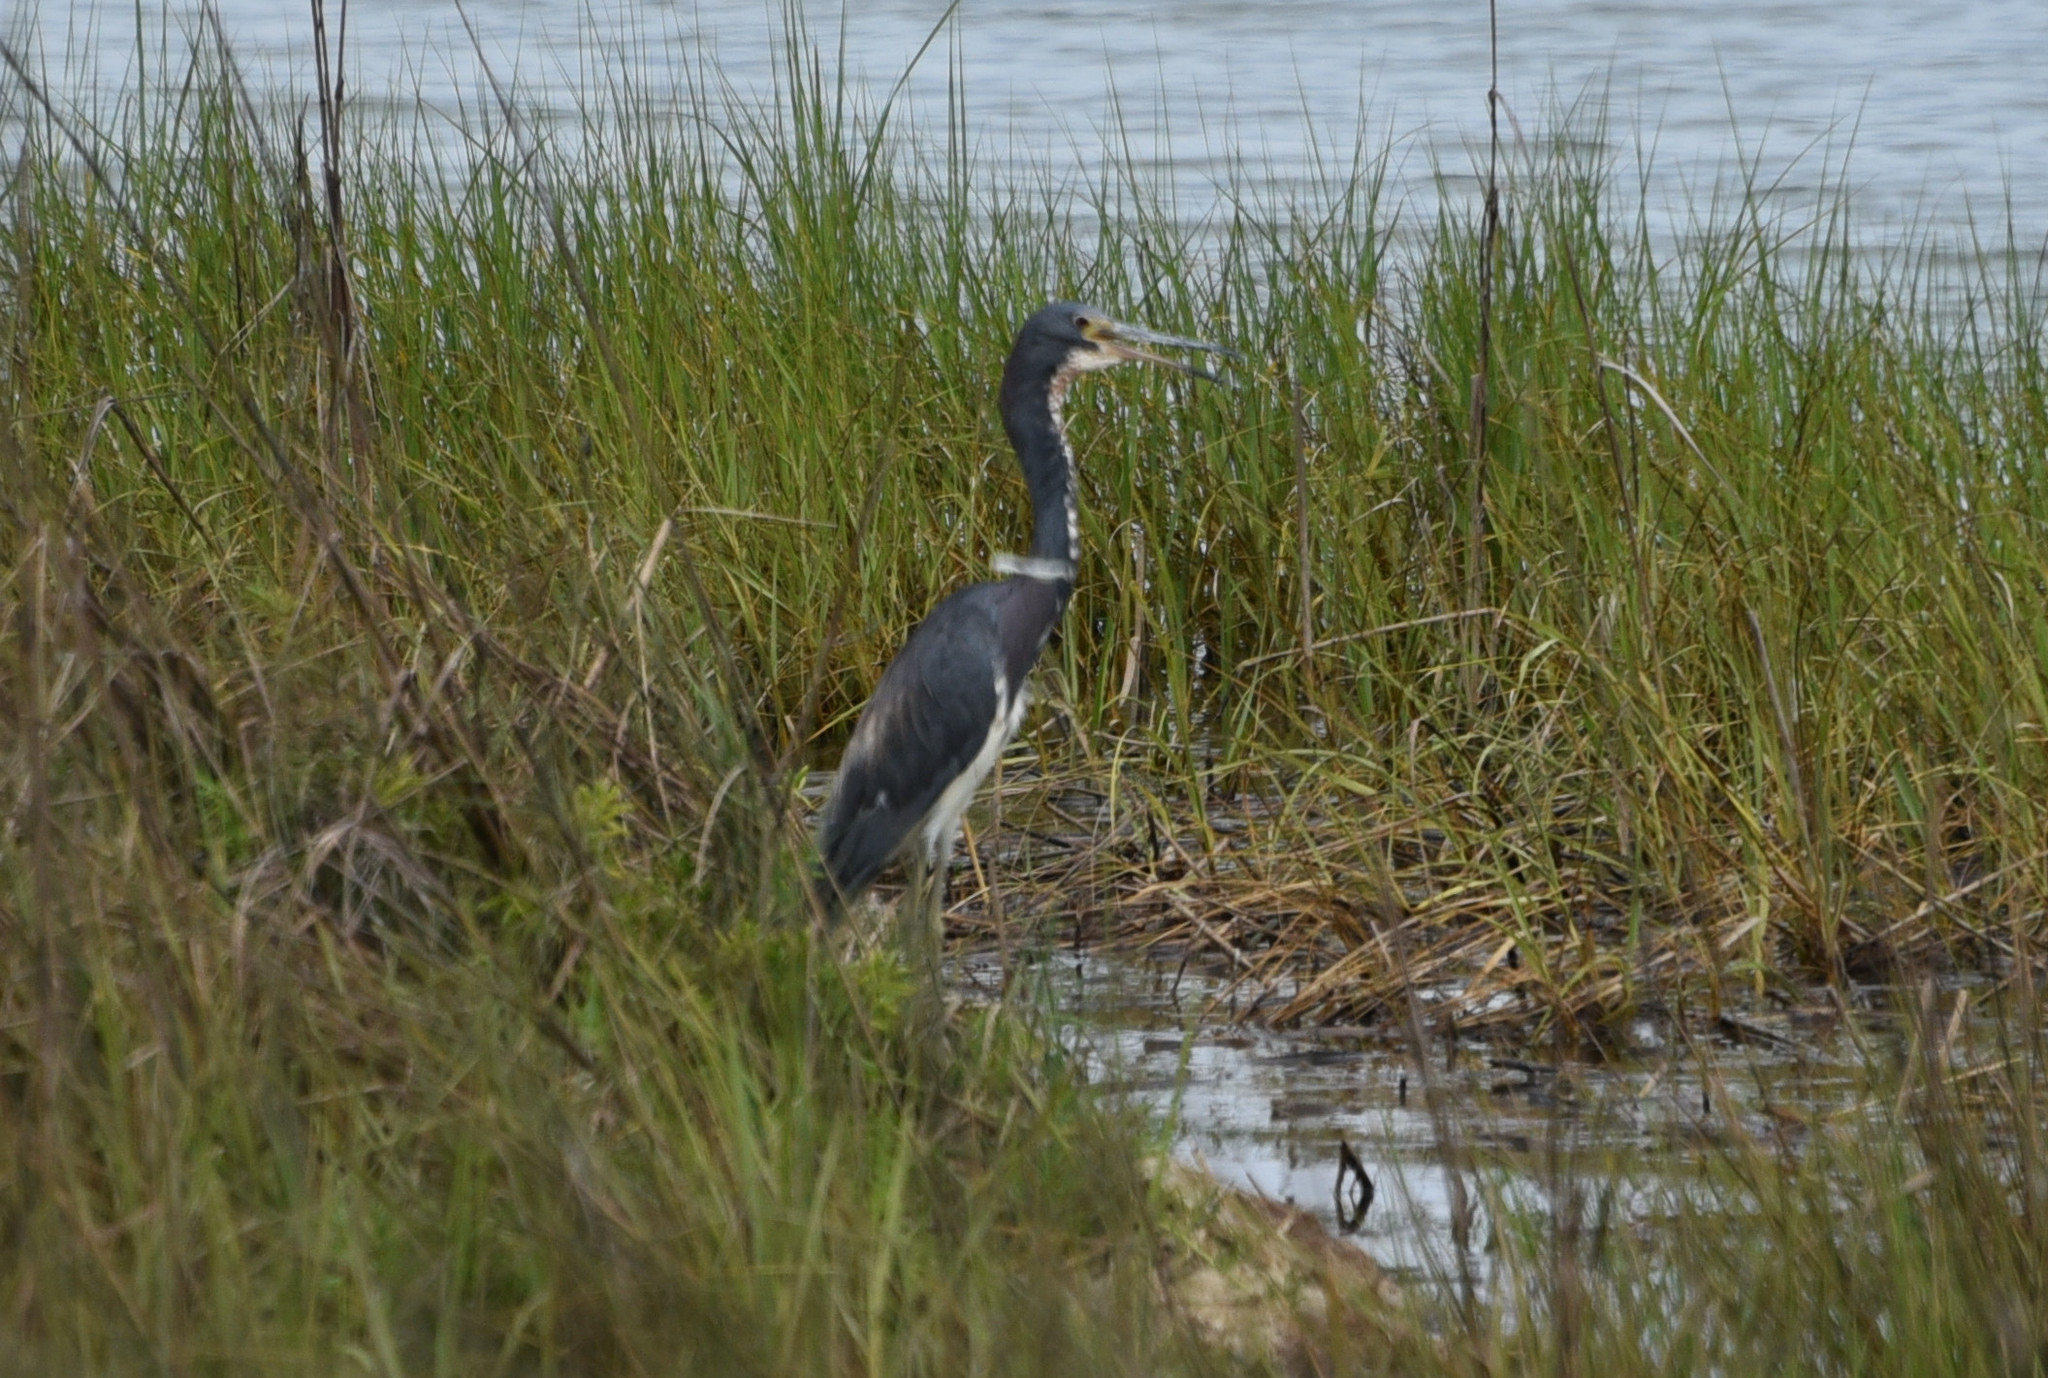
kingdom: Animalia
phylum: Chordata
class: Aves
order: Pelecaniformes
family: Ardeidae
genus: Egretta
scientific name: Egretta tricolor
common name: Tricolored heron
